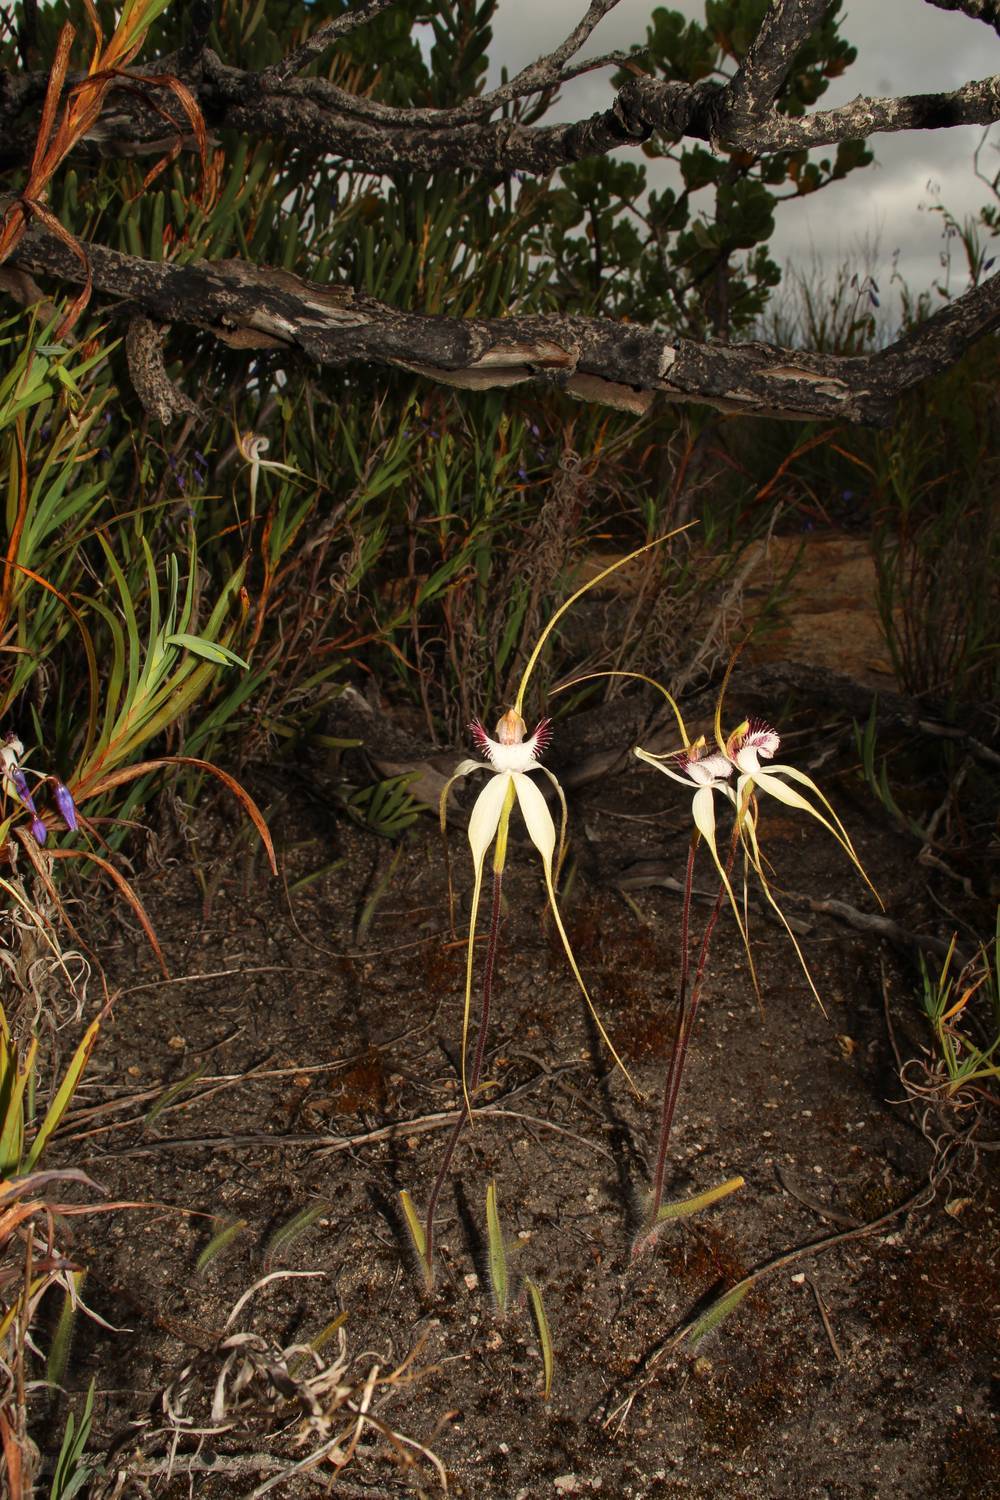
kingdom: Plantae
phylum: Tracheophyta
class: Liliopsida
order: Asparagales
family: Orchidaceae
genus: Caladenia
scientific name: Caladenia longicauda
